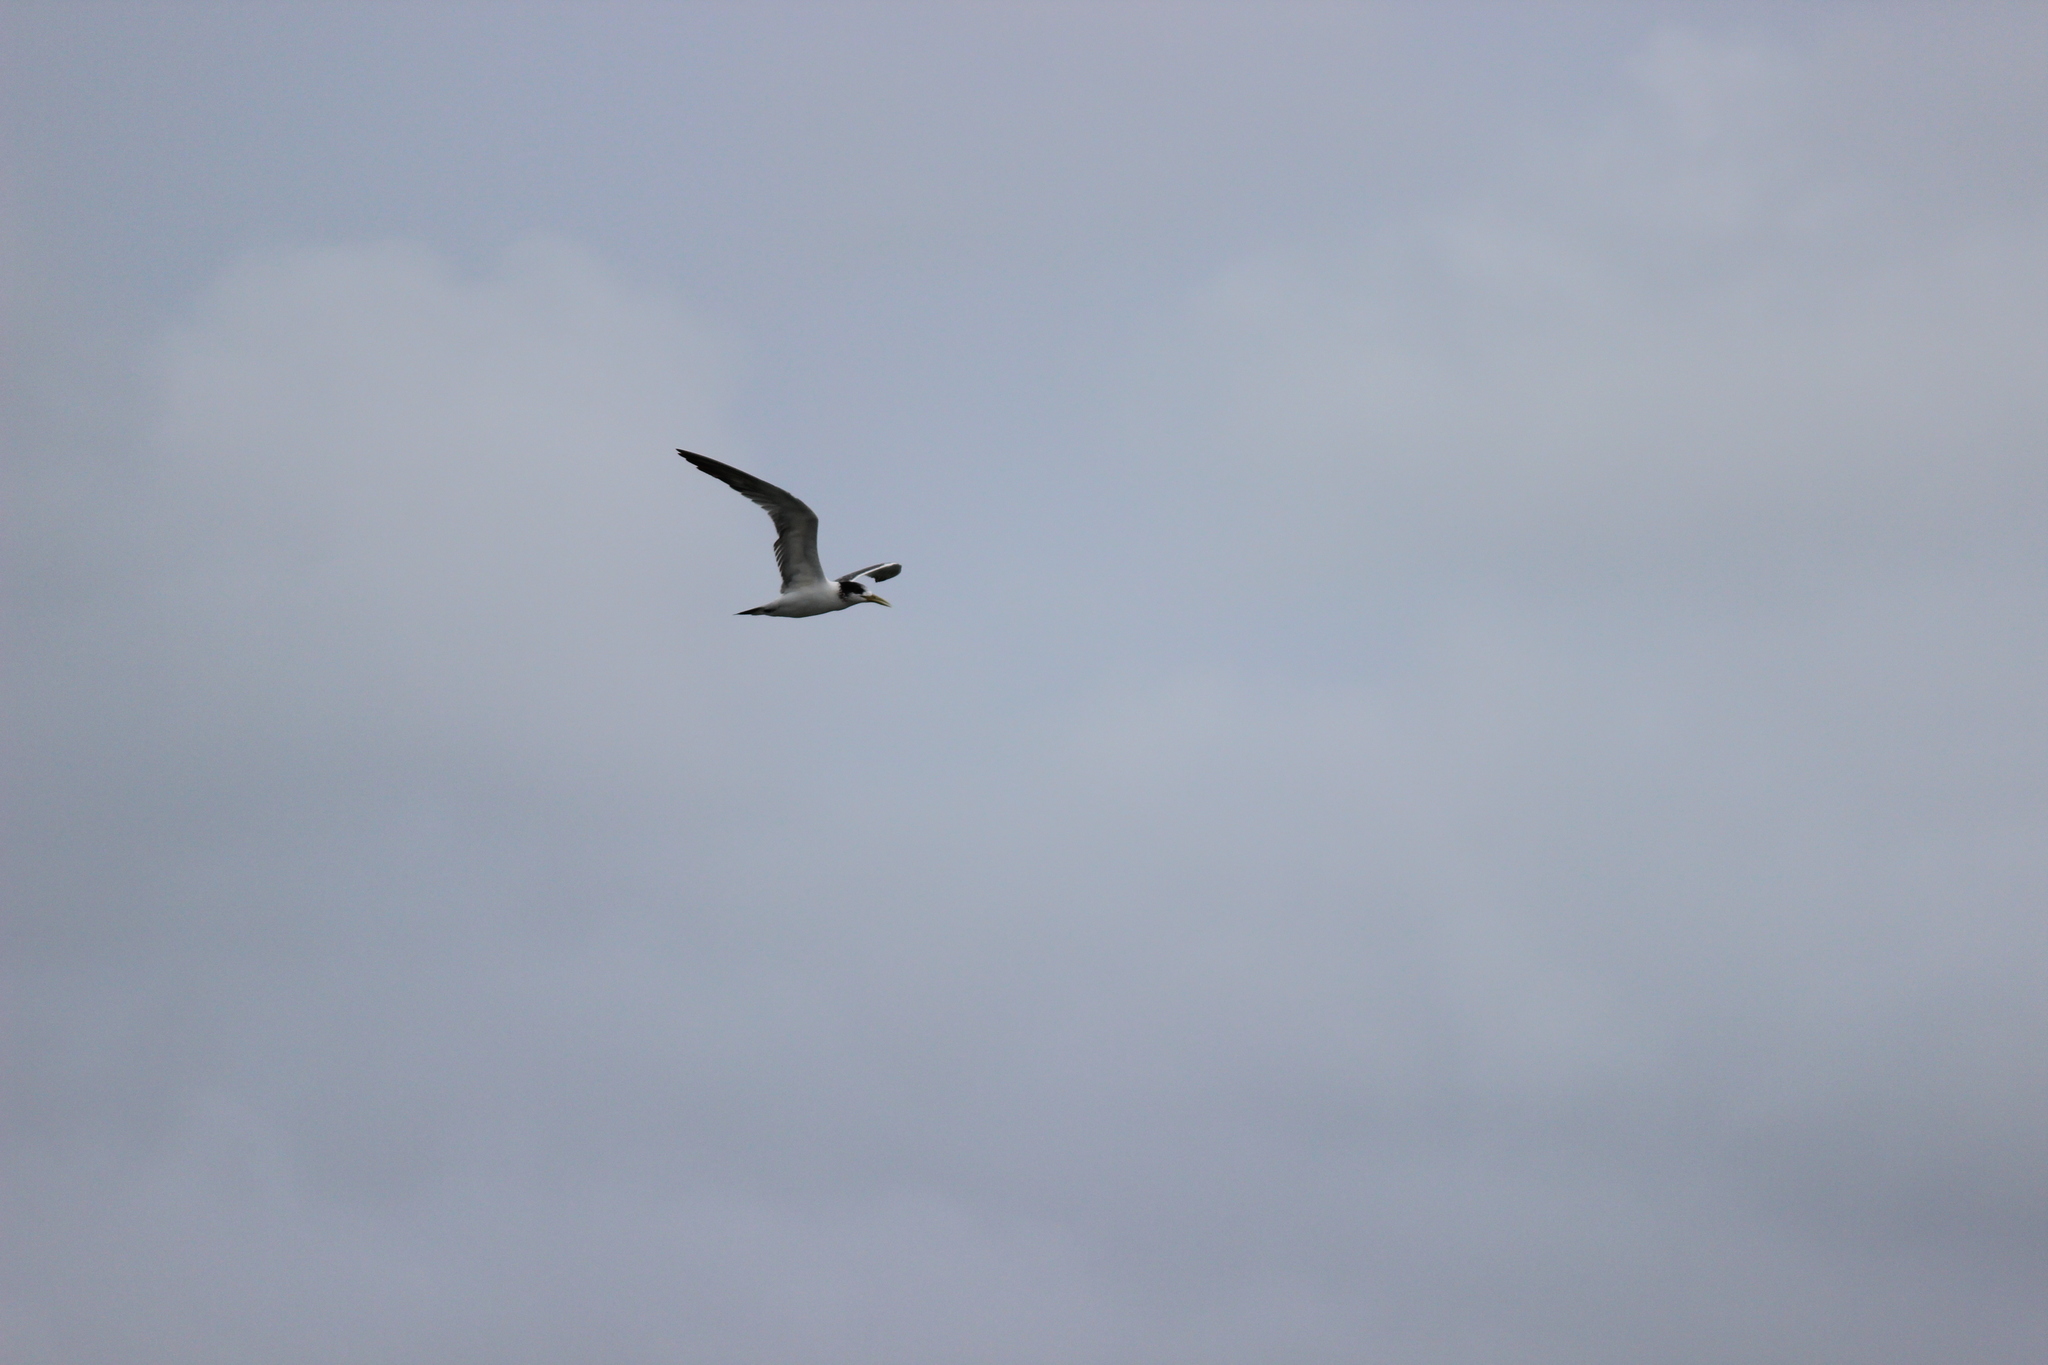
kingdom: Animalia
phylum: Chordata
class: Aves
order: Charadriiformes
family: Laridae
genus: Thalasseus
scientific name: Thalasseus bergii
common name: Greater crested tern
